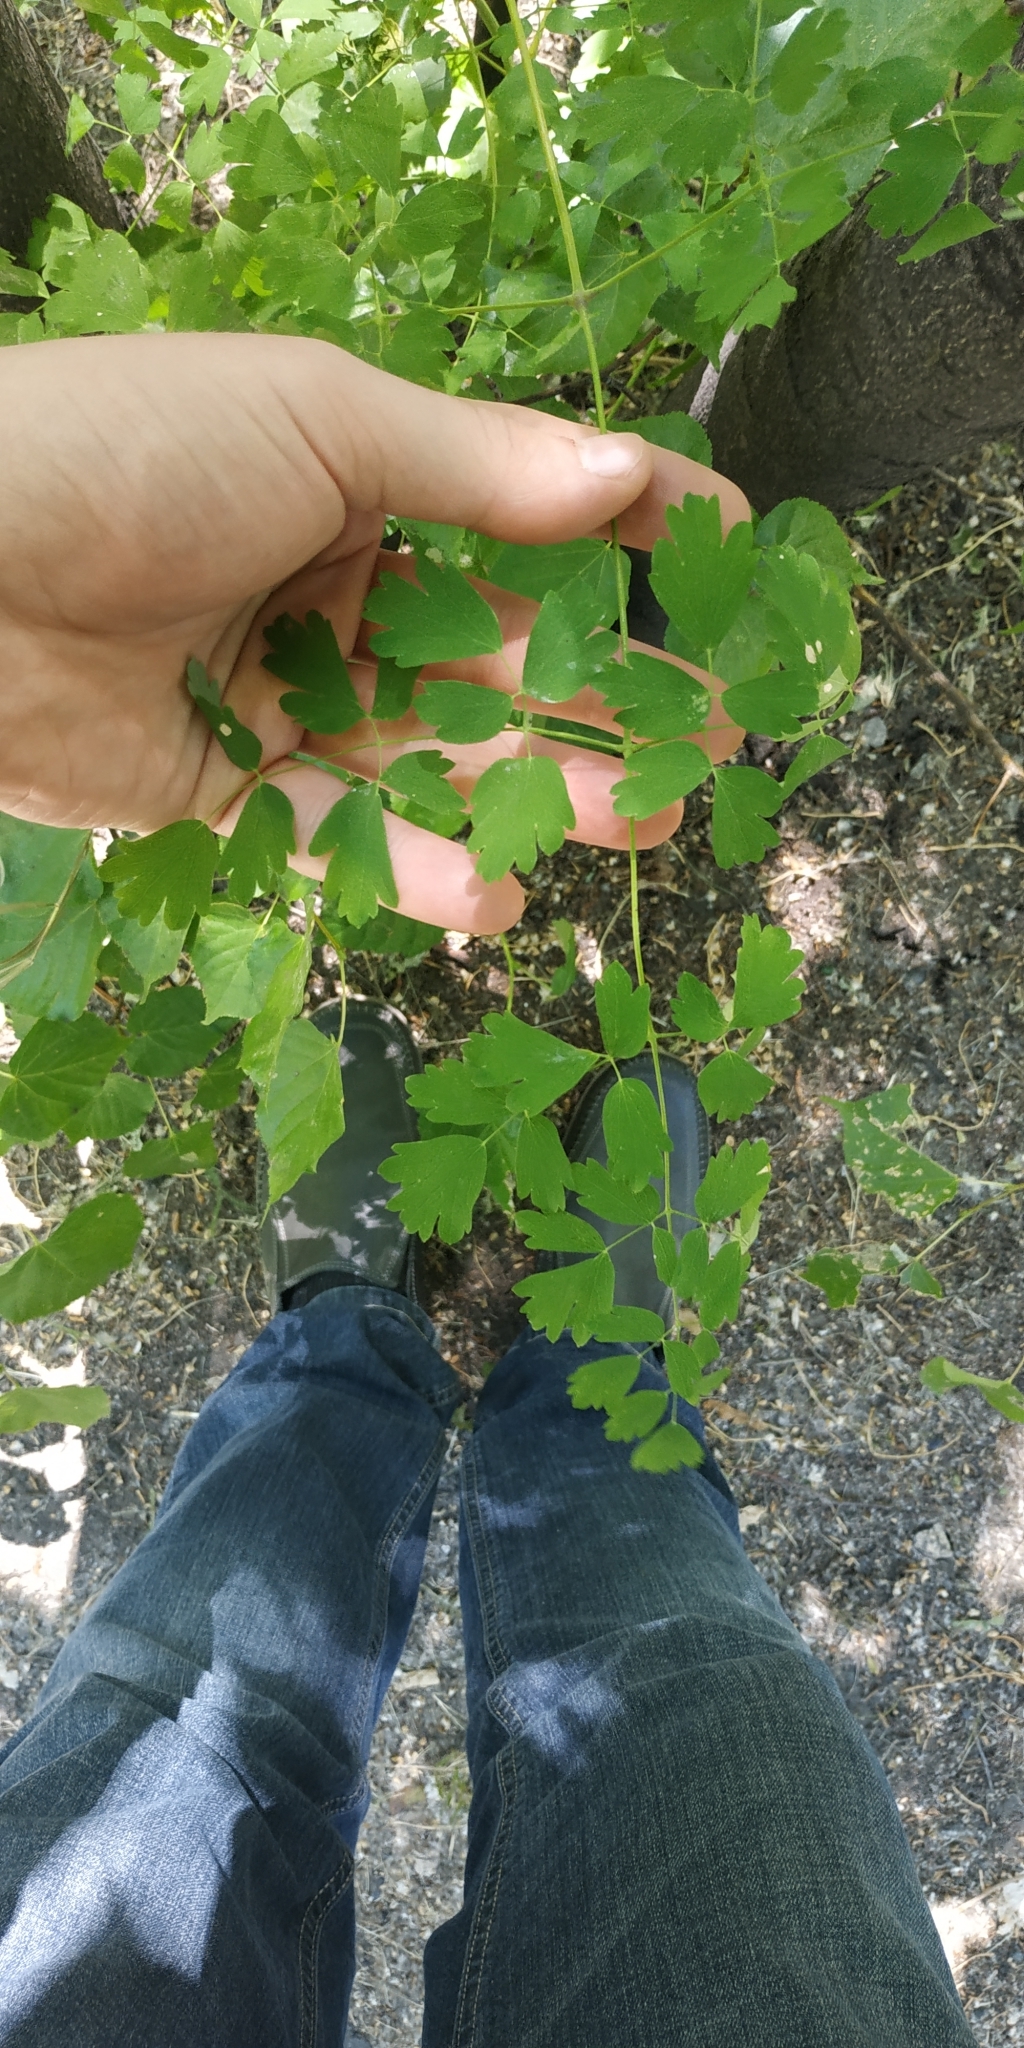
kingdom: Plantae
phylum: Tracheophyta
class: Magnoliopsida
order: Ranunculales
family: Ranunculaceae
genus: Thalictrum
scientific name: Thalictrum minus
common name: Lesser meadow-rue
